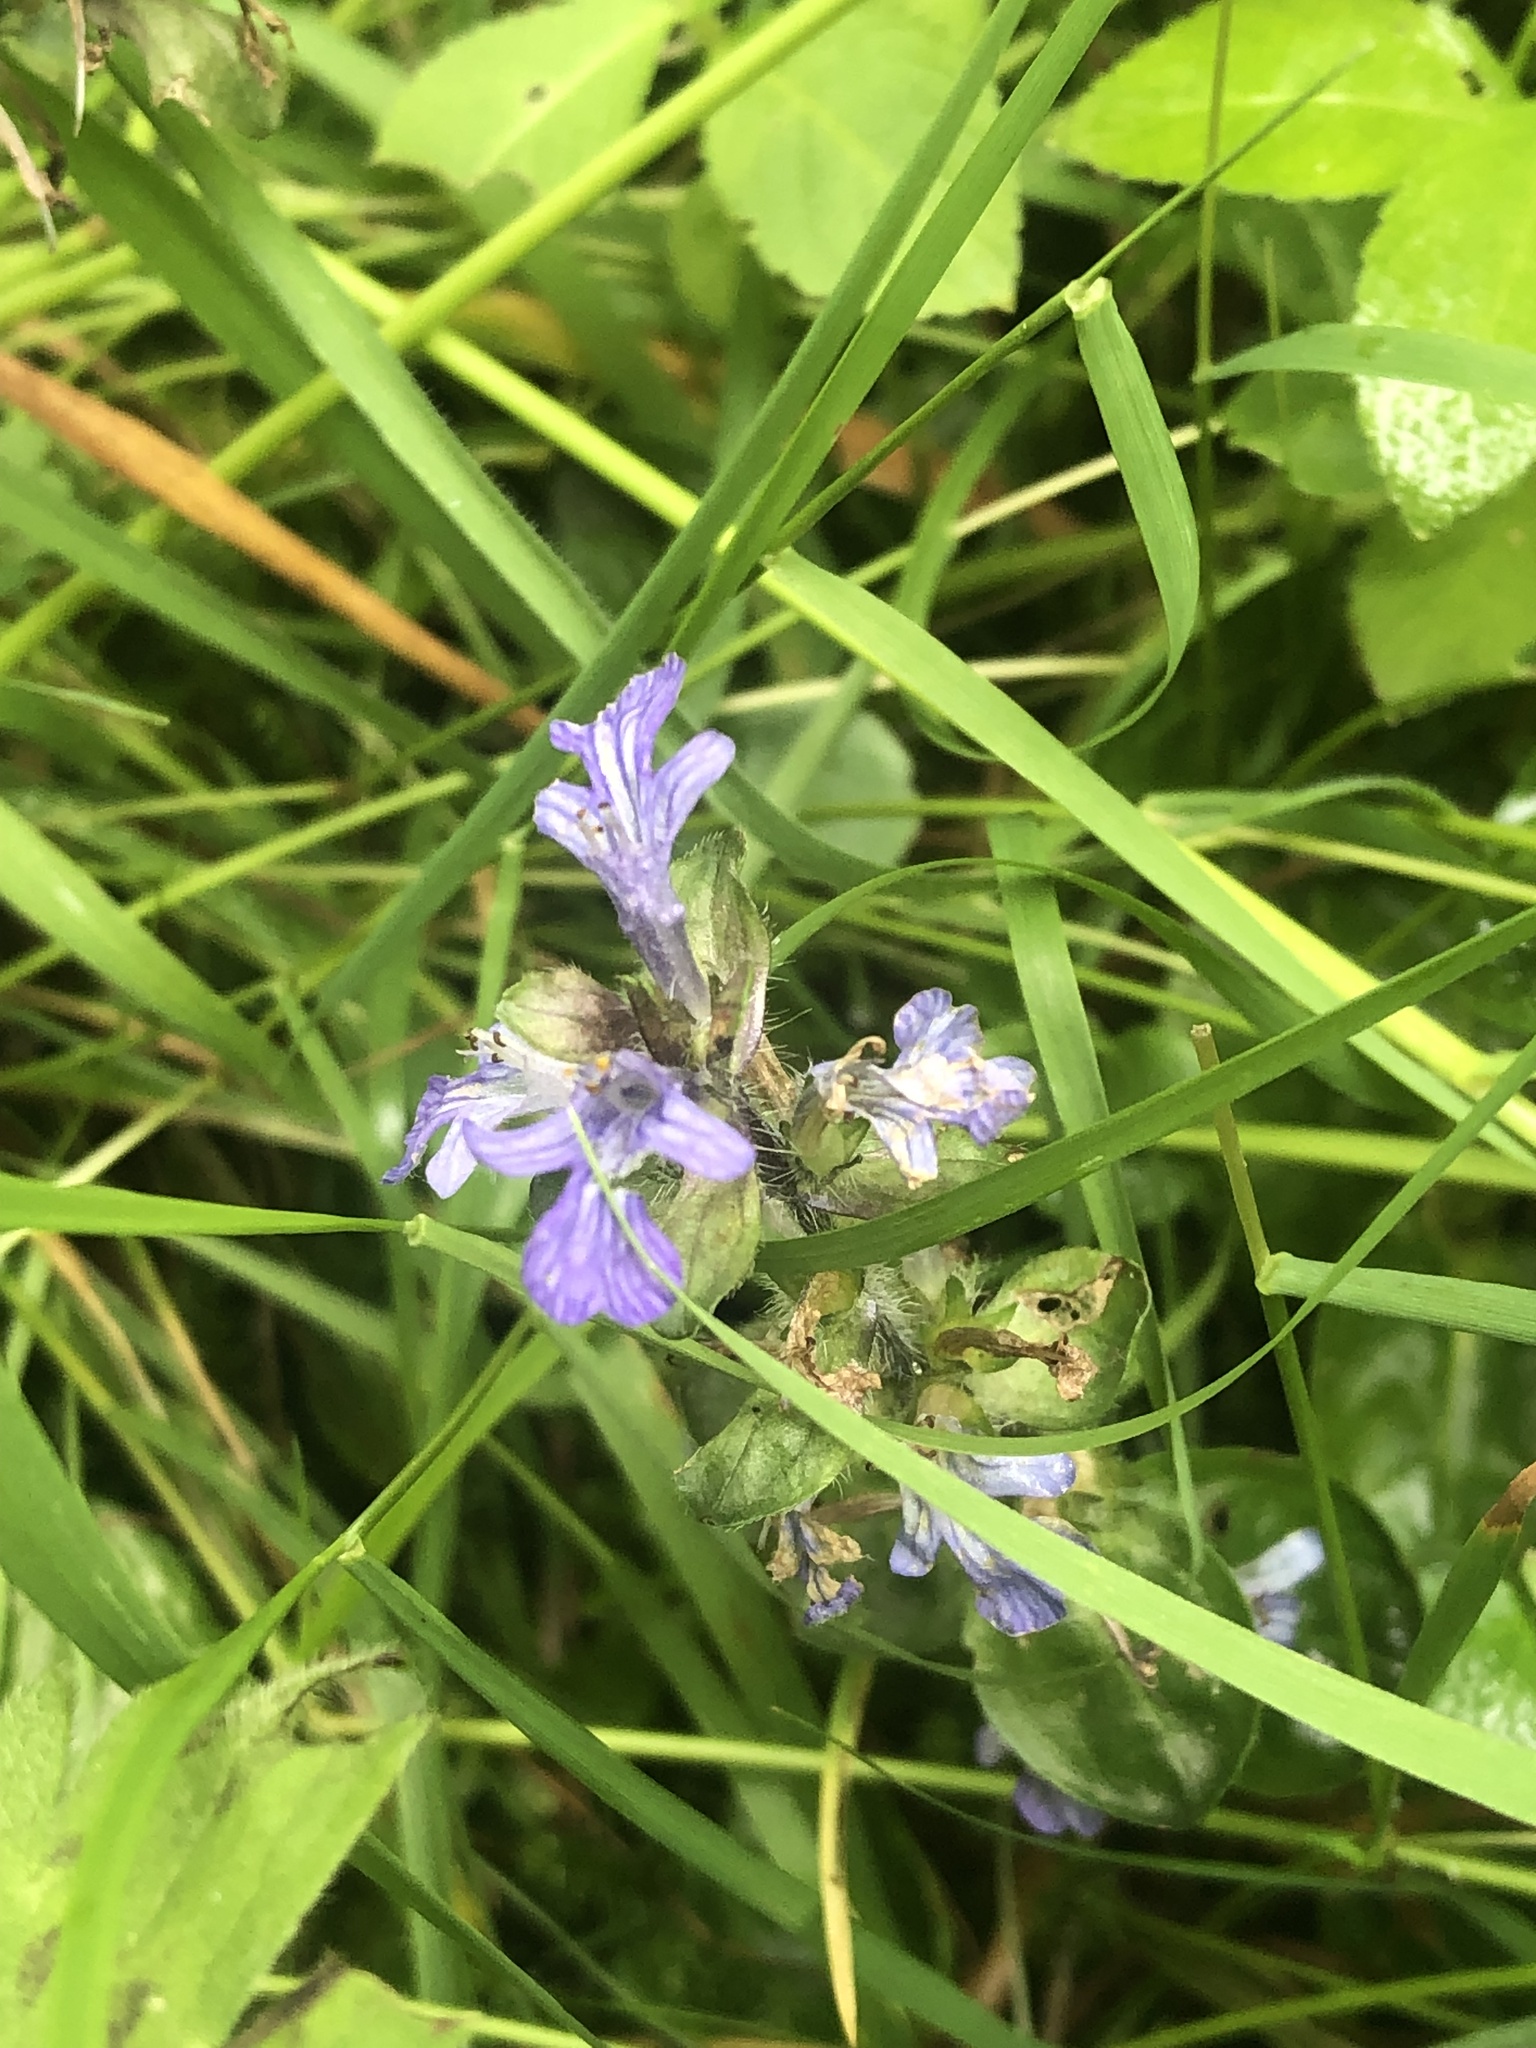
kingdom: Plantae
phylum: Tracheophyta
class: Magnoliopsida
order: Lamiales
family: Lamiaceae
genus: Ajuga
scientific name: Ajuga reptans
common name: Bugle
